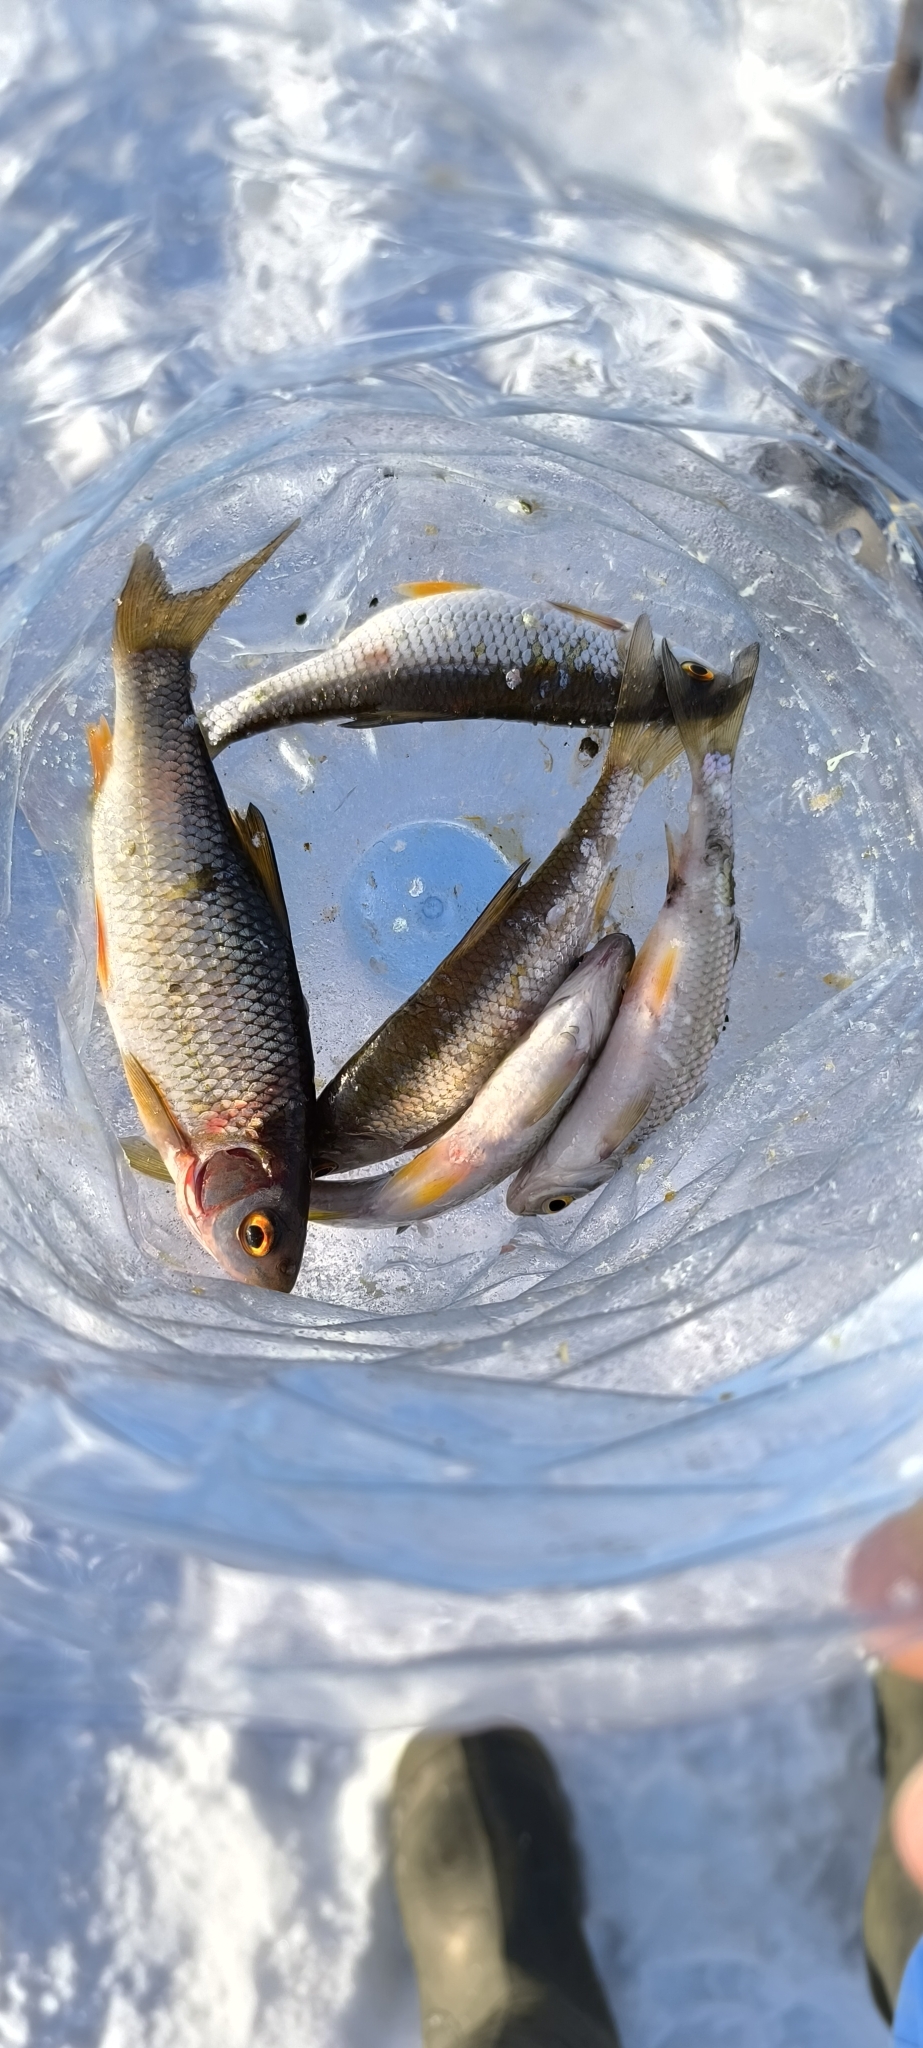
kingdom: Animalia
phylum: Chordata
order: Cypriniformes
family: Cyprinidae
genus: Rutilus
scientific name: Rutilus rutilus
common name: Roach
